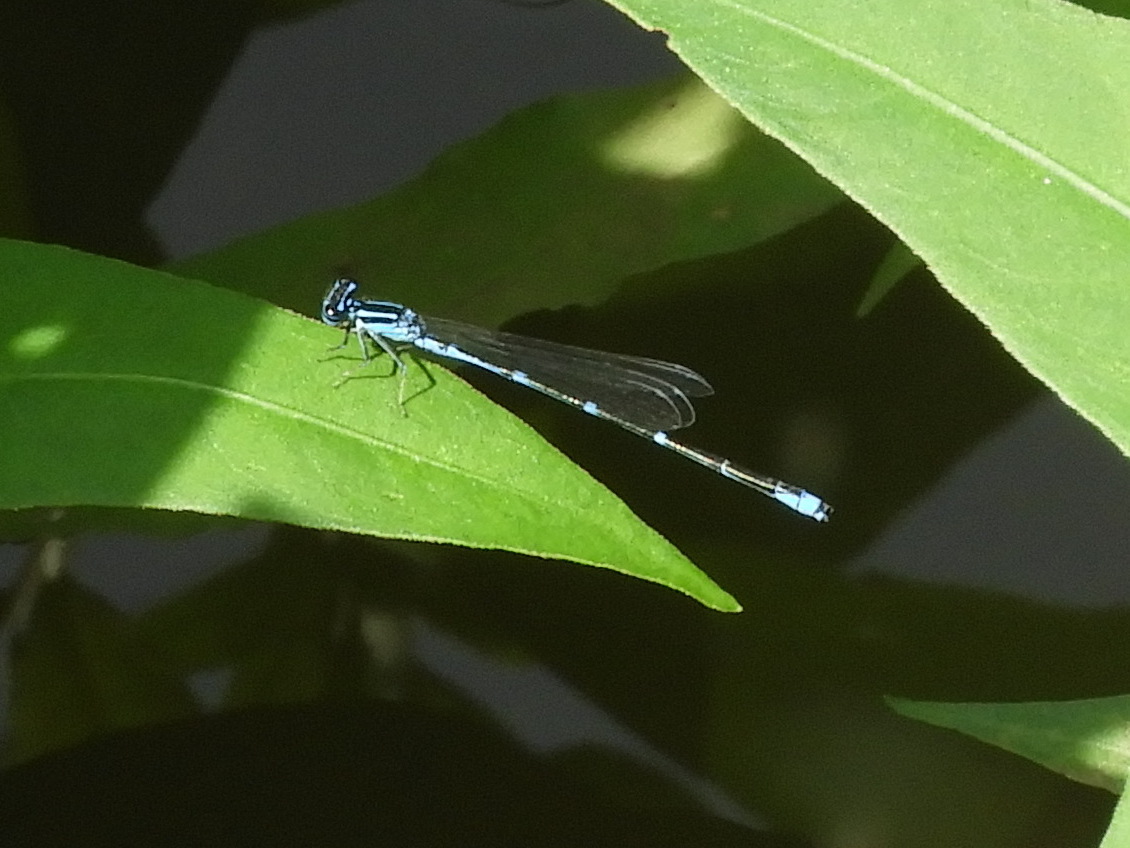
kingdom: Animalia
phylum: Arthropoda
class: Insecta
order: Odonata
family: Coenagrionidae
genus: Enallagma
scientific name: Enallagma exsulans
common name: Stream bluet
